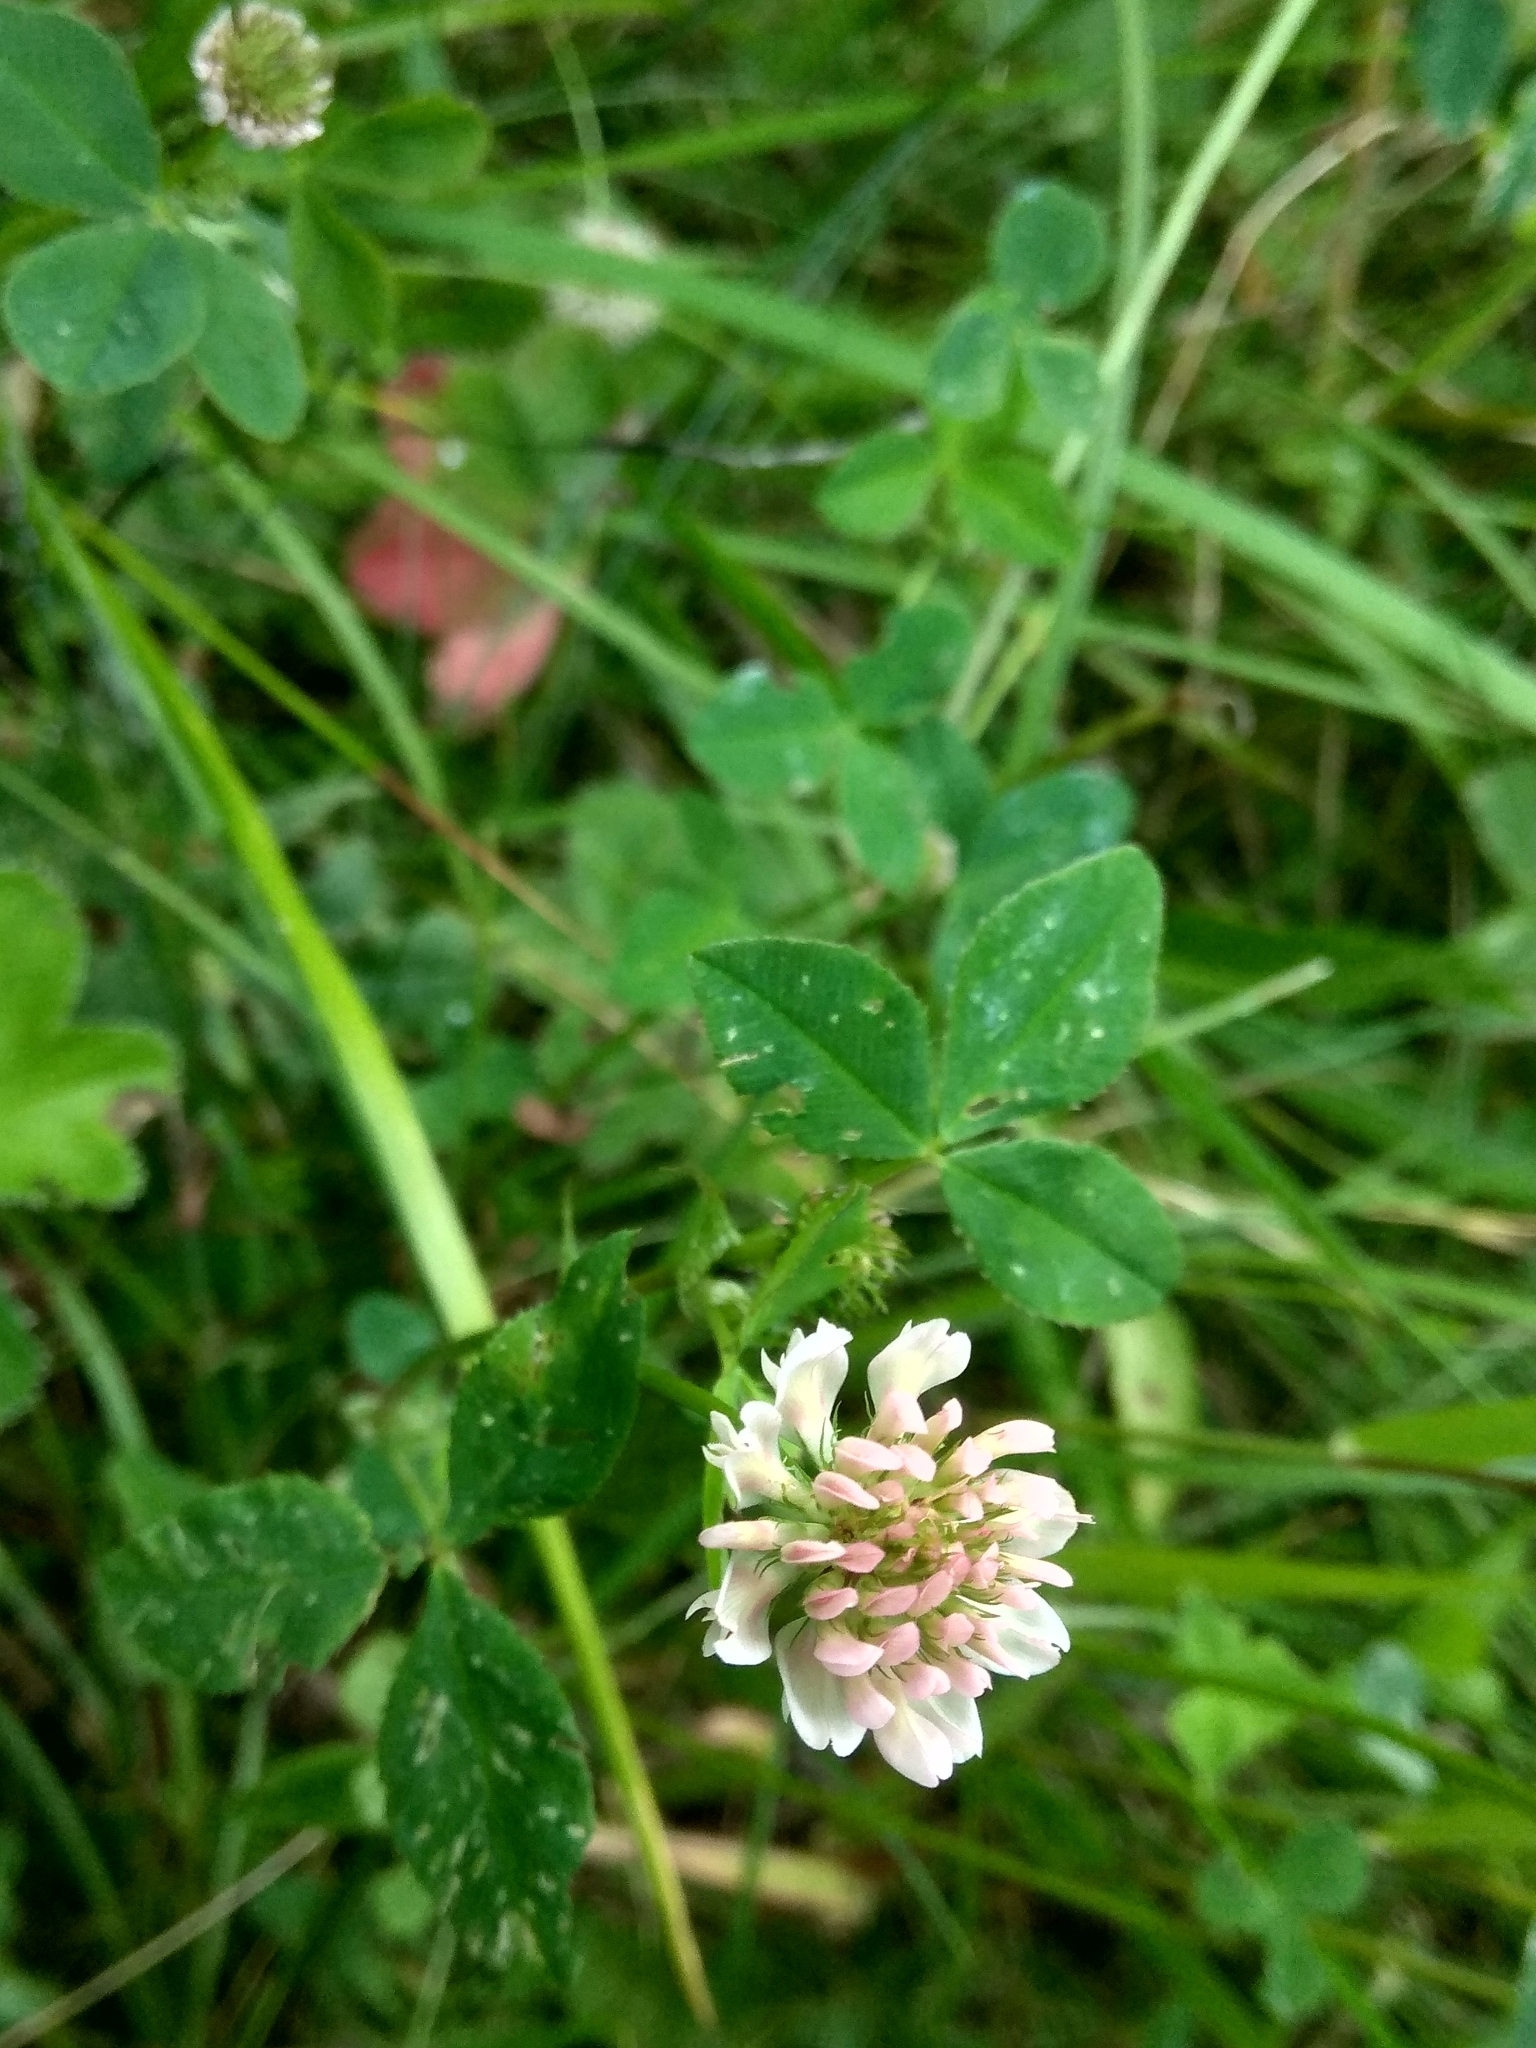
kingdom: Plantae
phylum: Tracheophyta
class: Magnoliopsida
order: Fabales
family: Fabaceae
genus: Trifolium
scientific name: Trifolium hybridum
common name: Alsike clover
